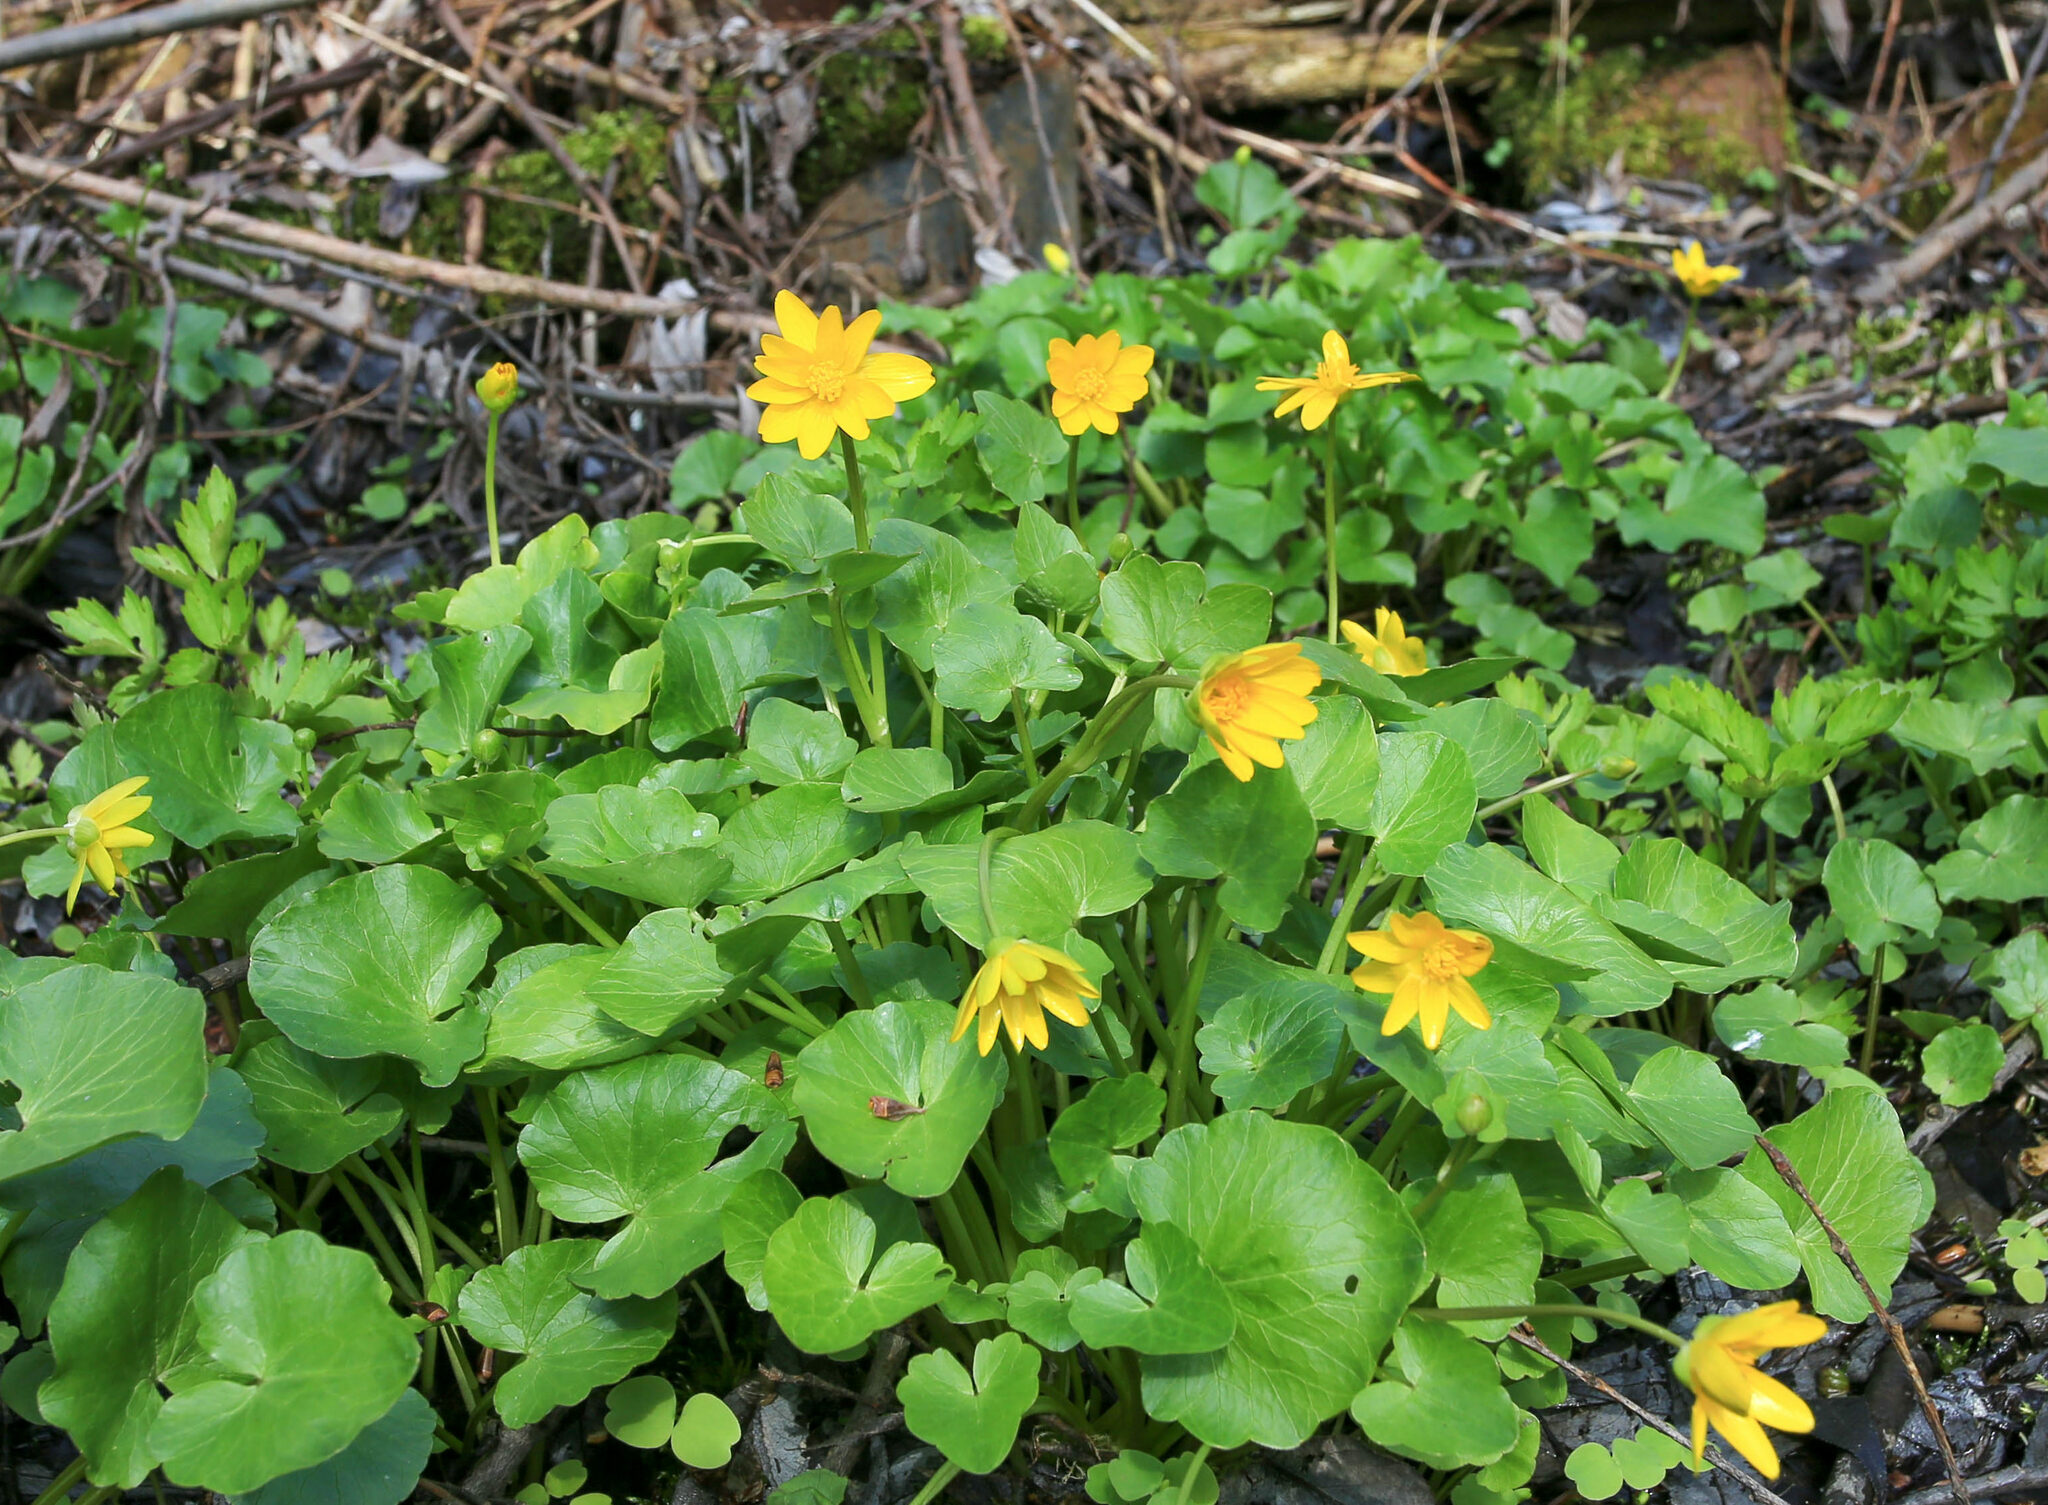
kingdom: Plantae
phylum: Tracheophyta
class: Magnoliopsida
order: Ranunculales
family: Ranunculaceae
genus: Ficaria
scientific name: Ficaria verna
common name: Lesser celandine
